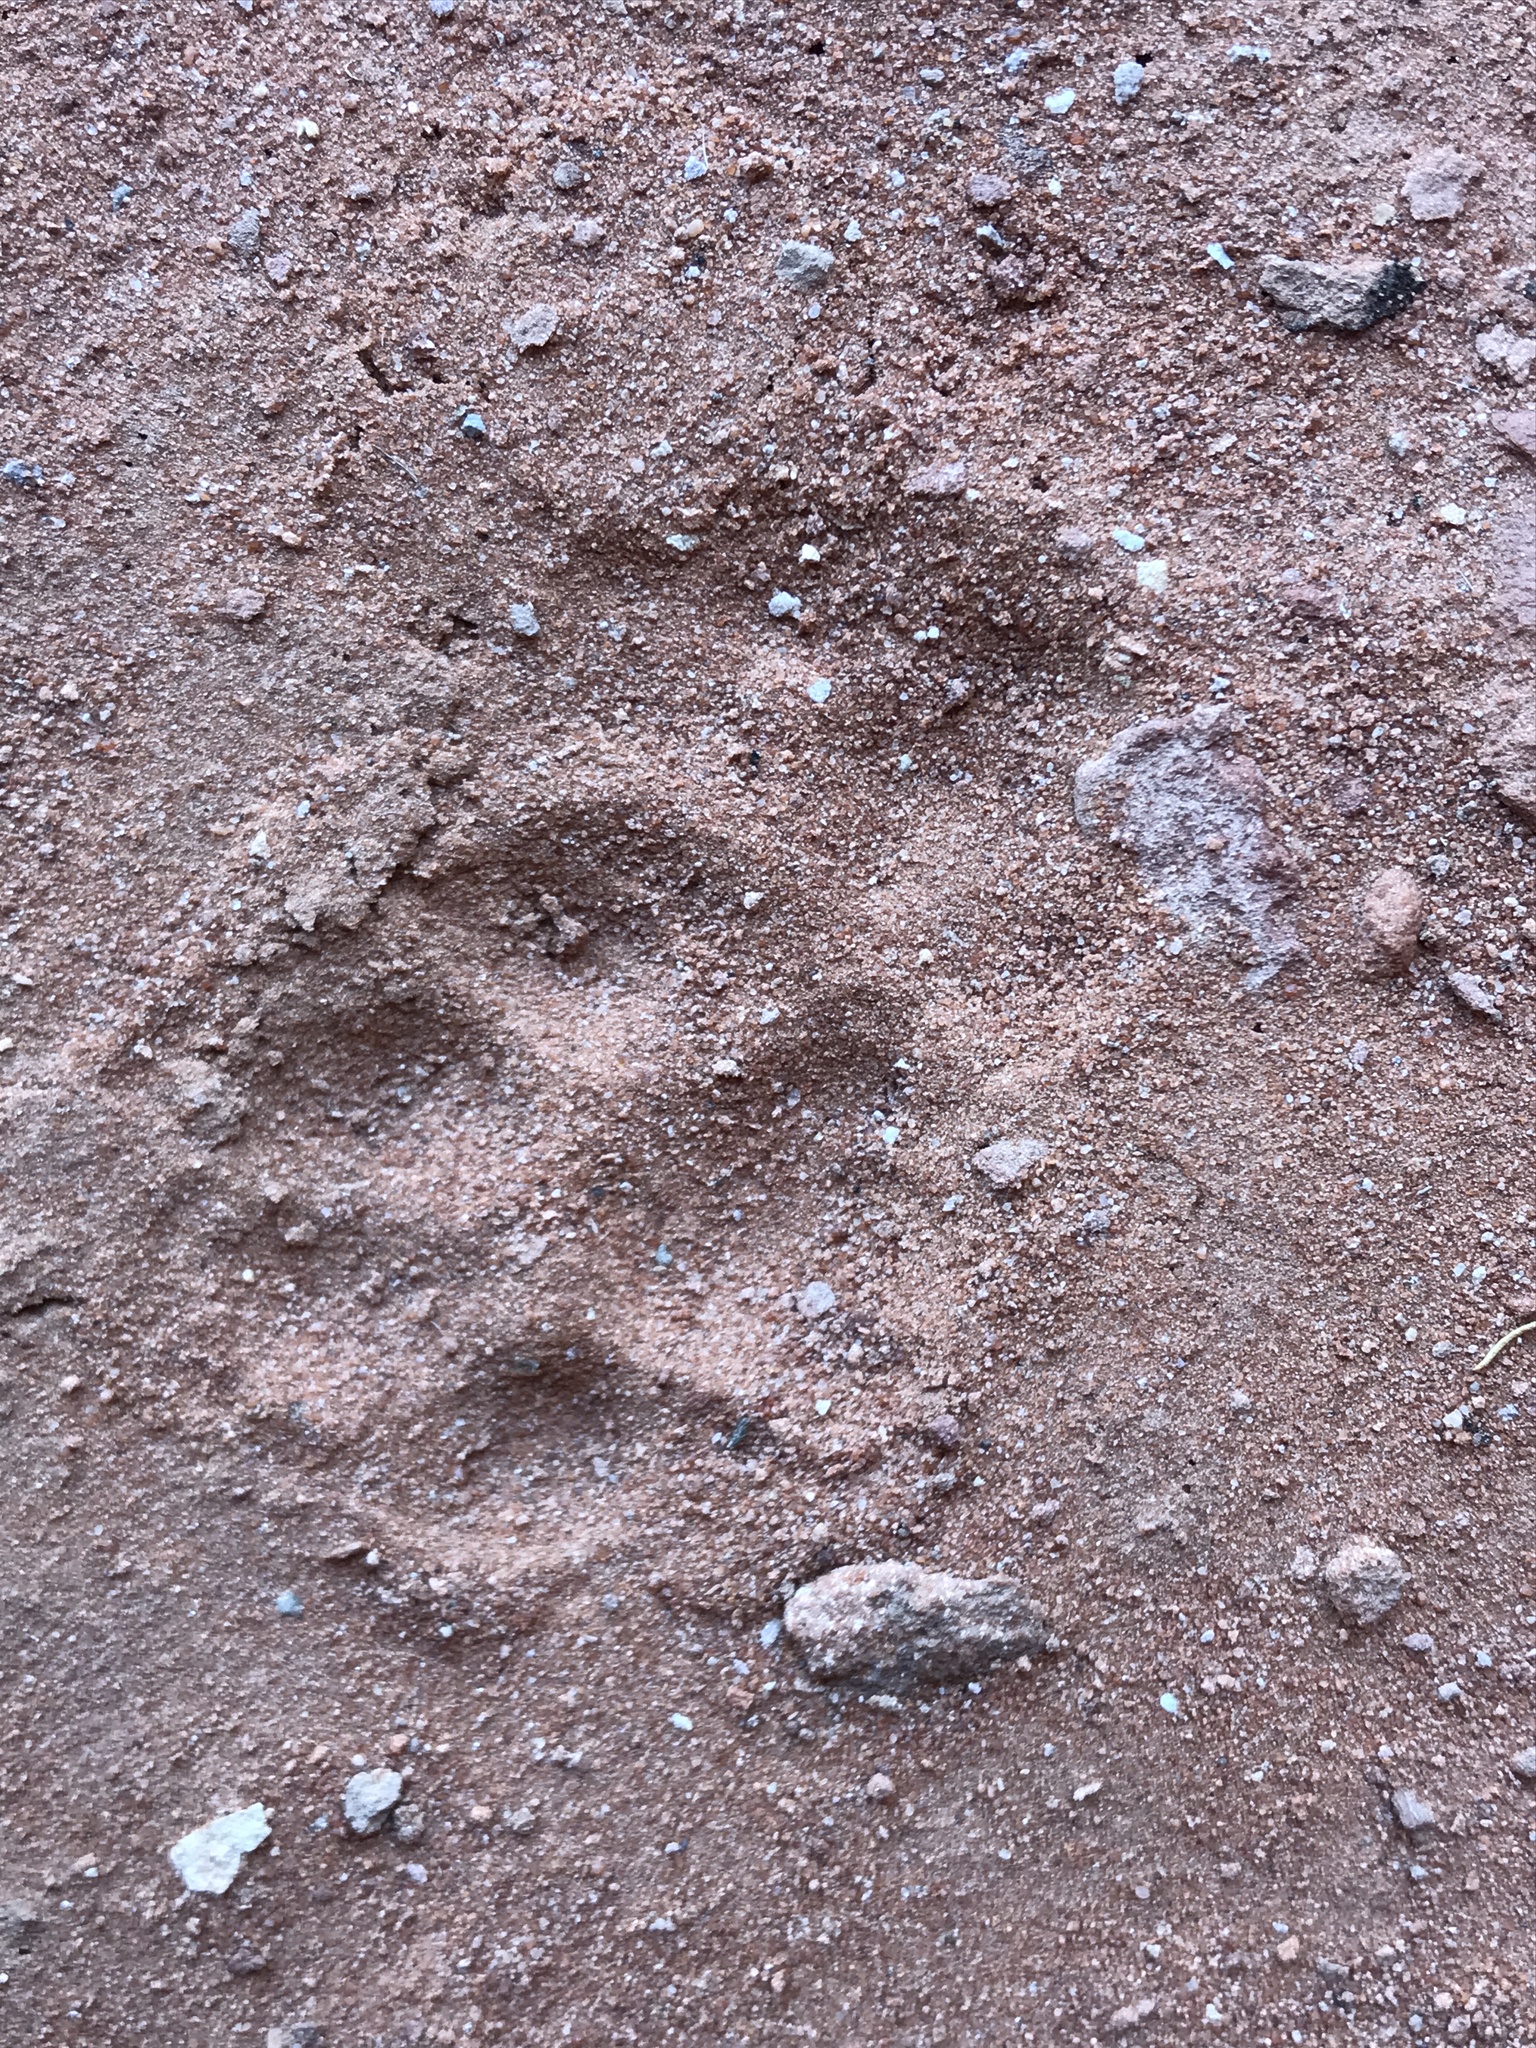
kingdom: Animalia
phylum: Chordata
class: Mammalia
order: Carnivora
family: Felidae
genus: Felis
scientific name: Felis catus
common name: Domestic cat
